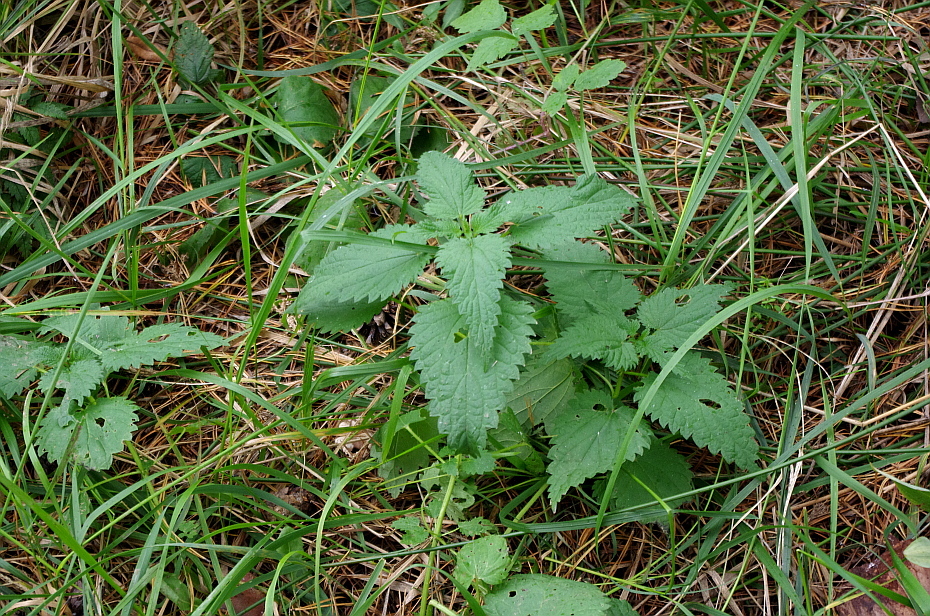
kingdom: Plantae
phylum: Tracheophyta
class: Magnoliopsida
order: Rosales
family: Urticaceae
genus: Urtica
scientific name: Urtica dioica
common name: Common nettle
